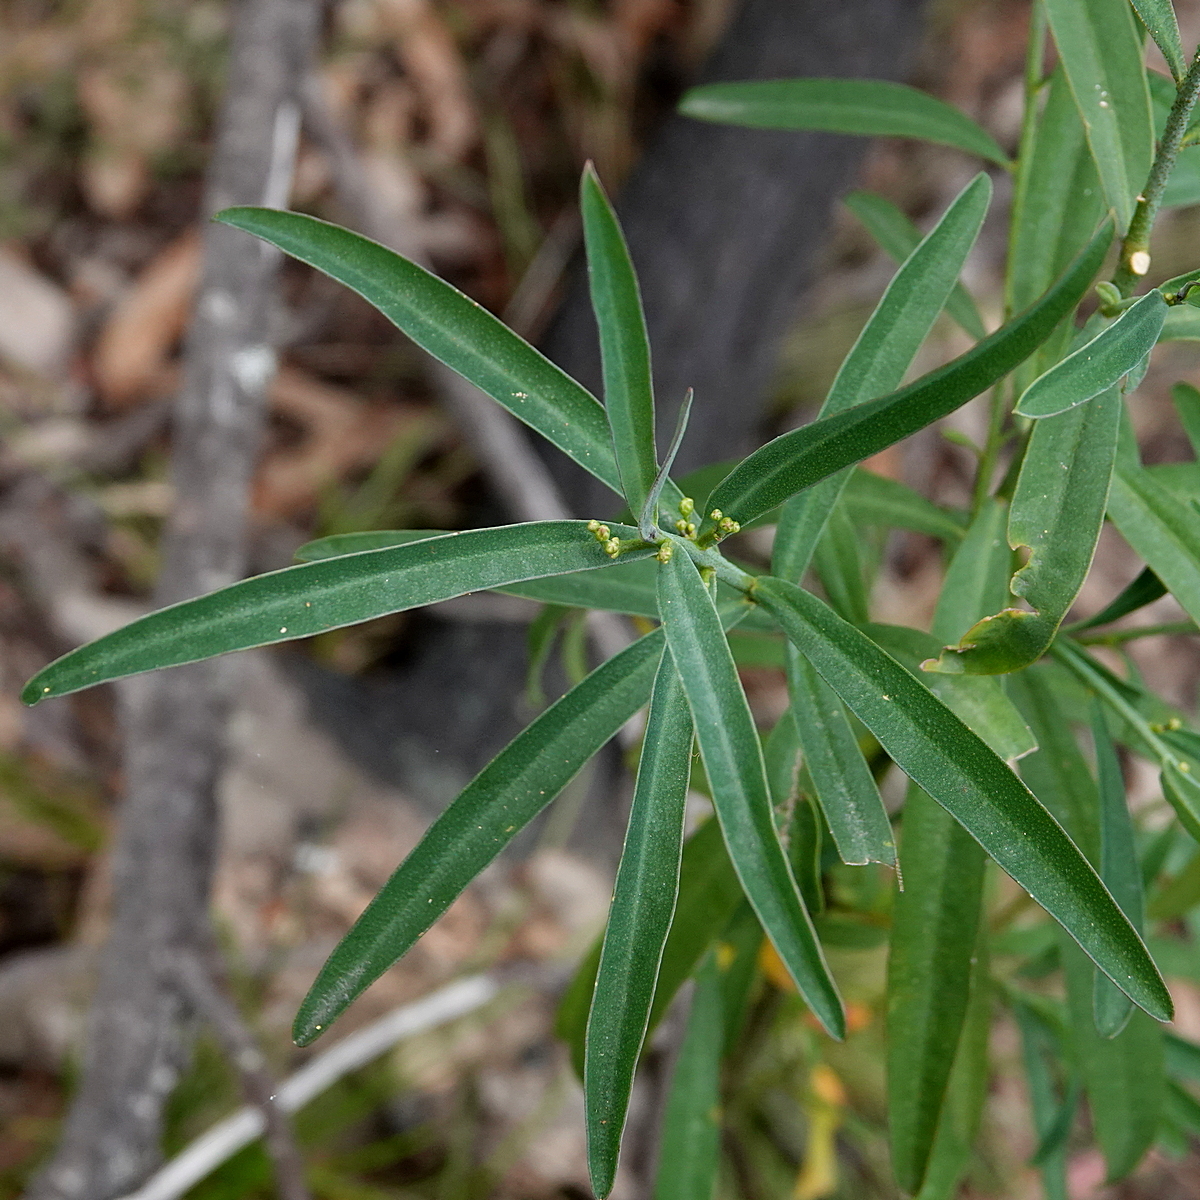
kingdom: Plantae
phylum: Tracheophyta
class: Magnoliopsida
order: Sapindales
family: Rutaceae
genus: Philotheca
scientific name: Philotheca myoporoides
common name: Longleaf waxflower
